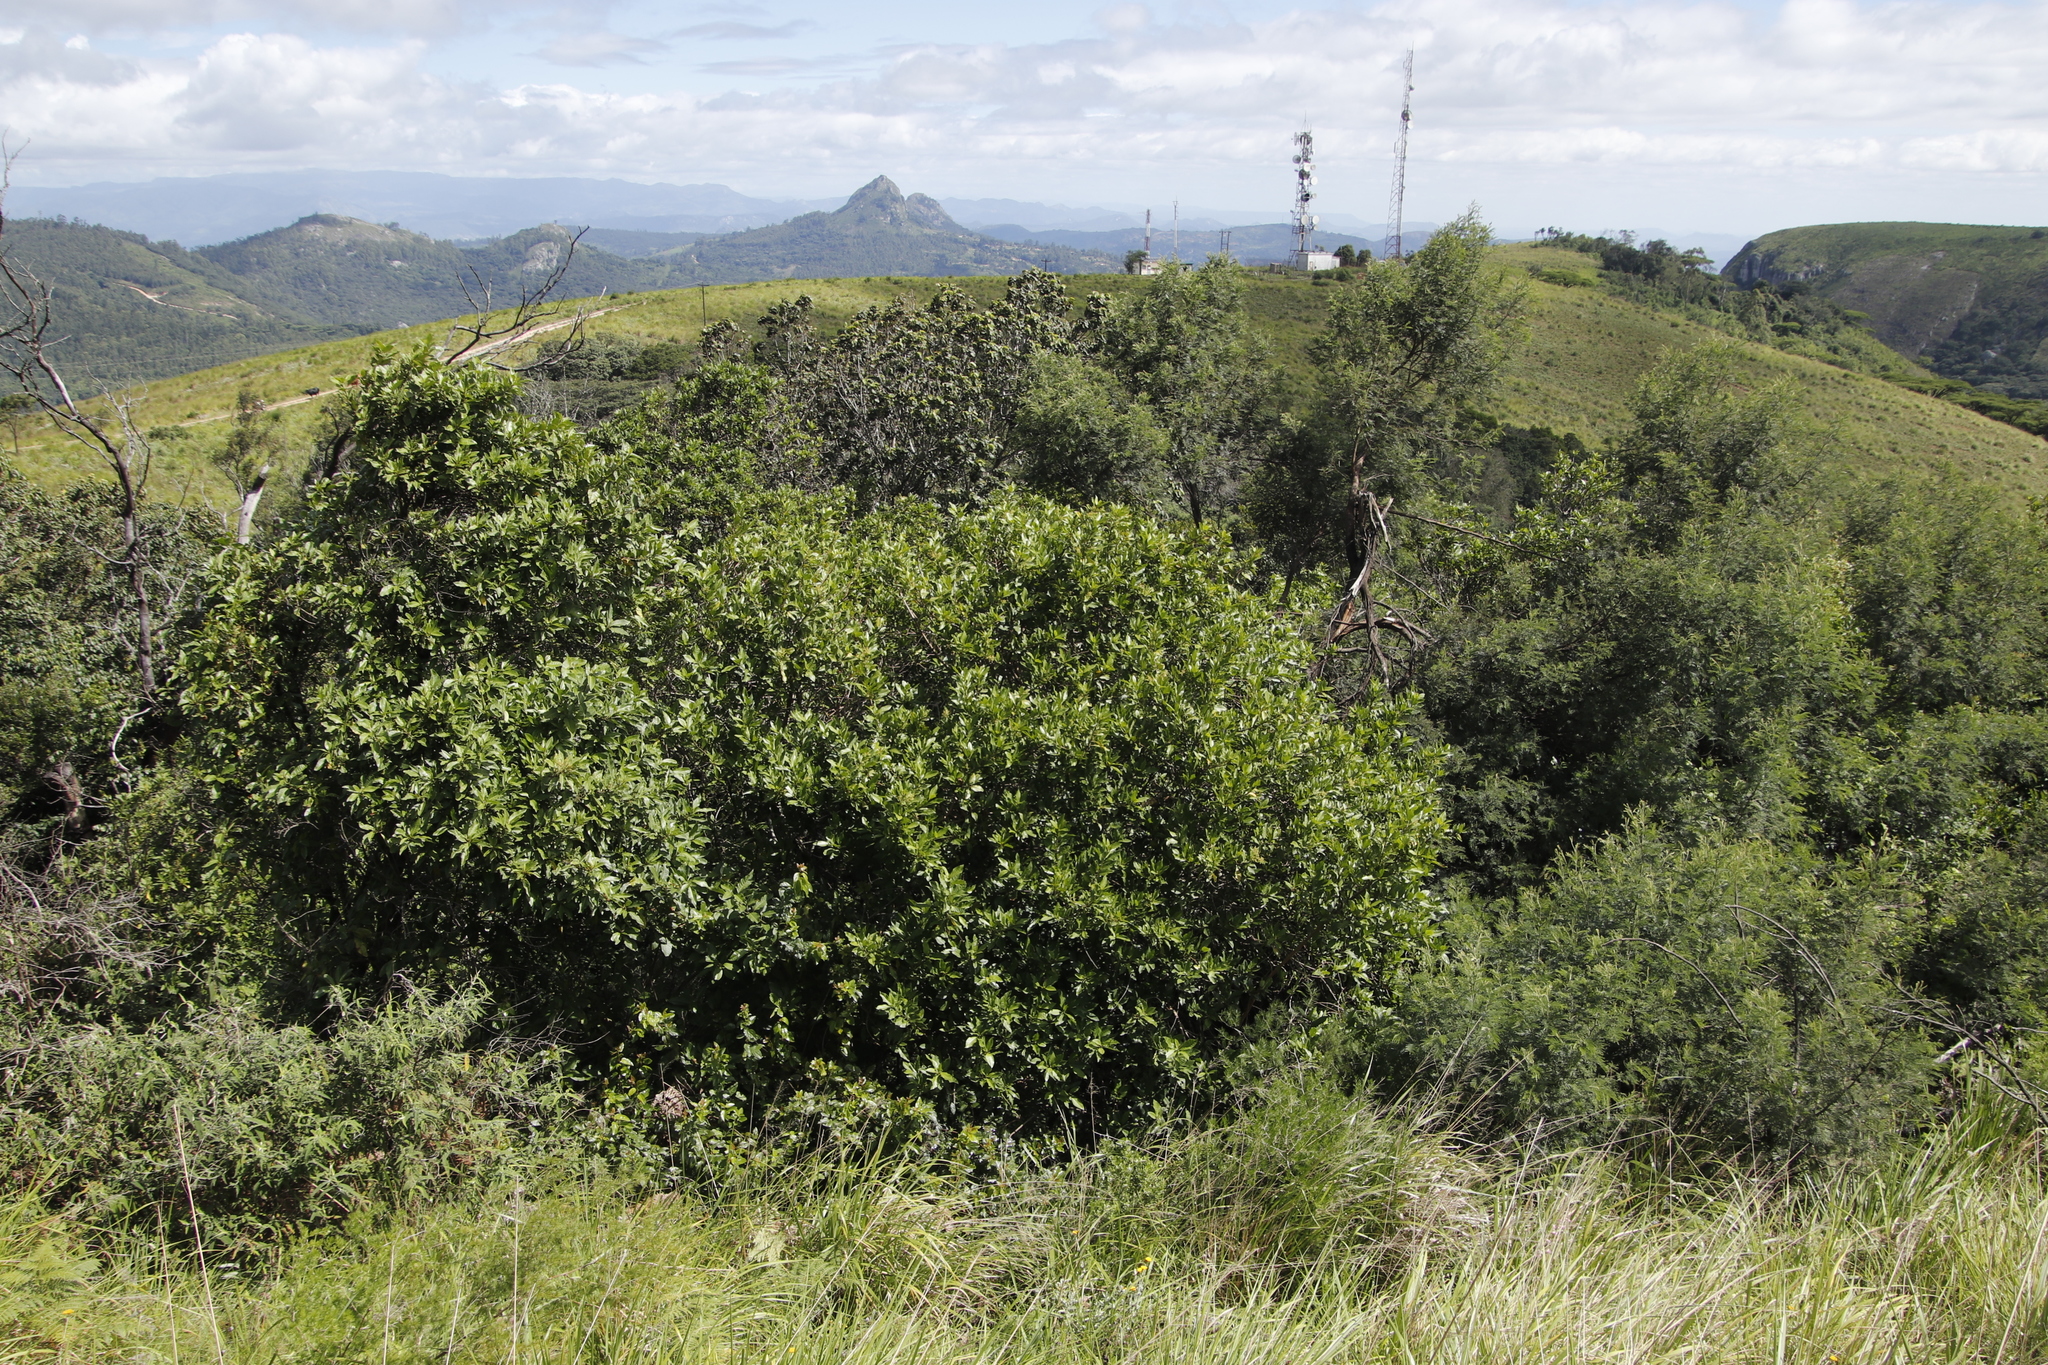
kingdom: Plantae
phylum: Tracheophyta
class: Magnoliopsida
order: Ericales
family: Primulaceae
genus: Maesa
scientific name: Maesa lanceolata
